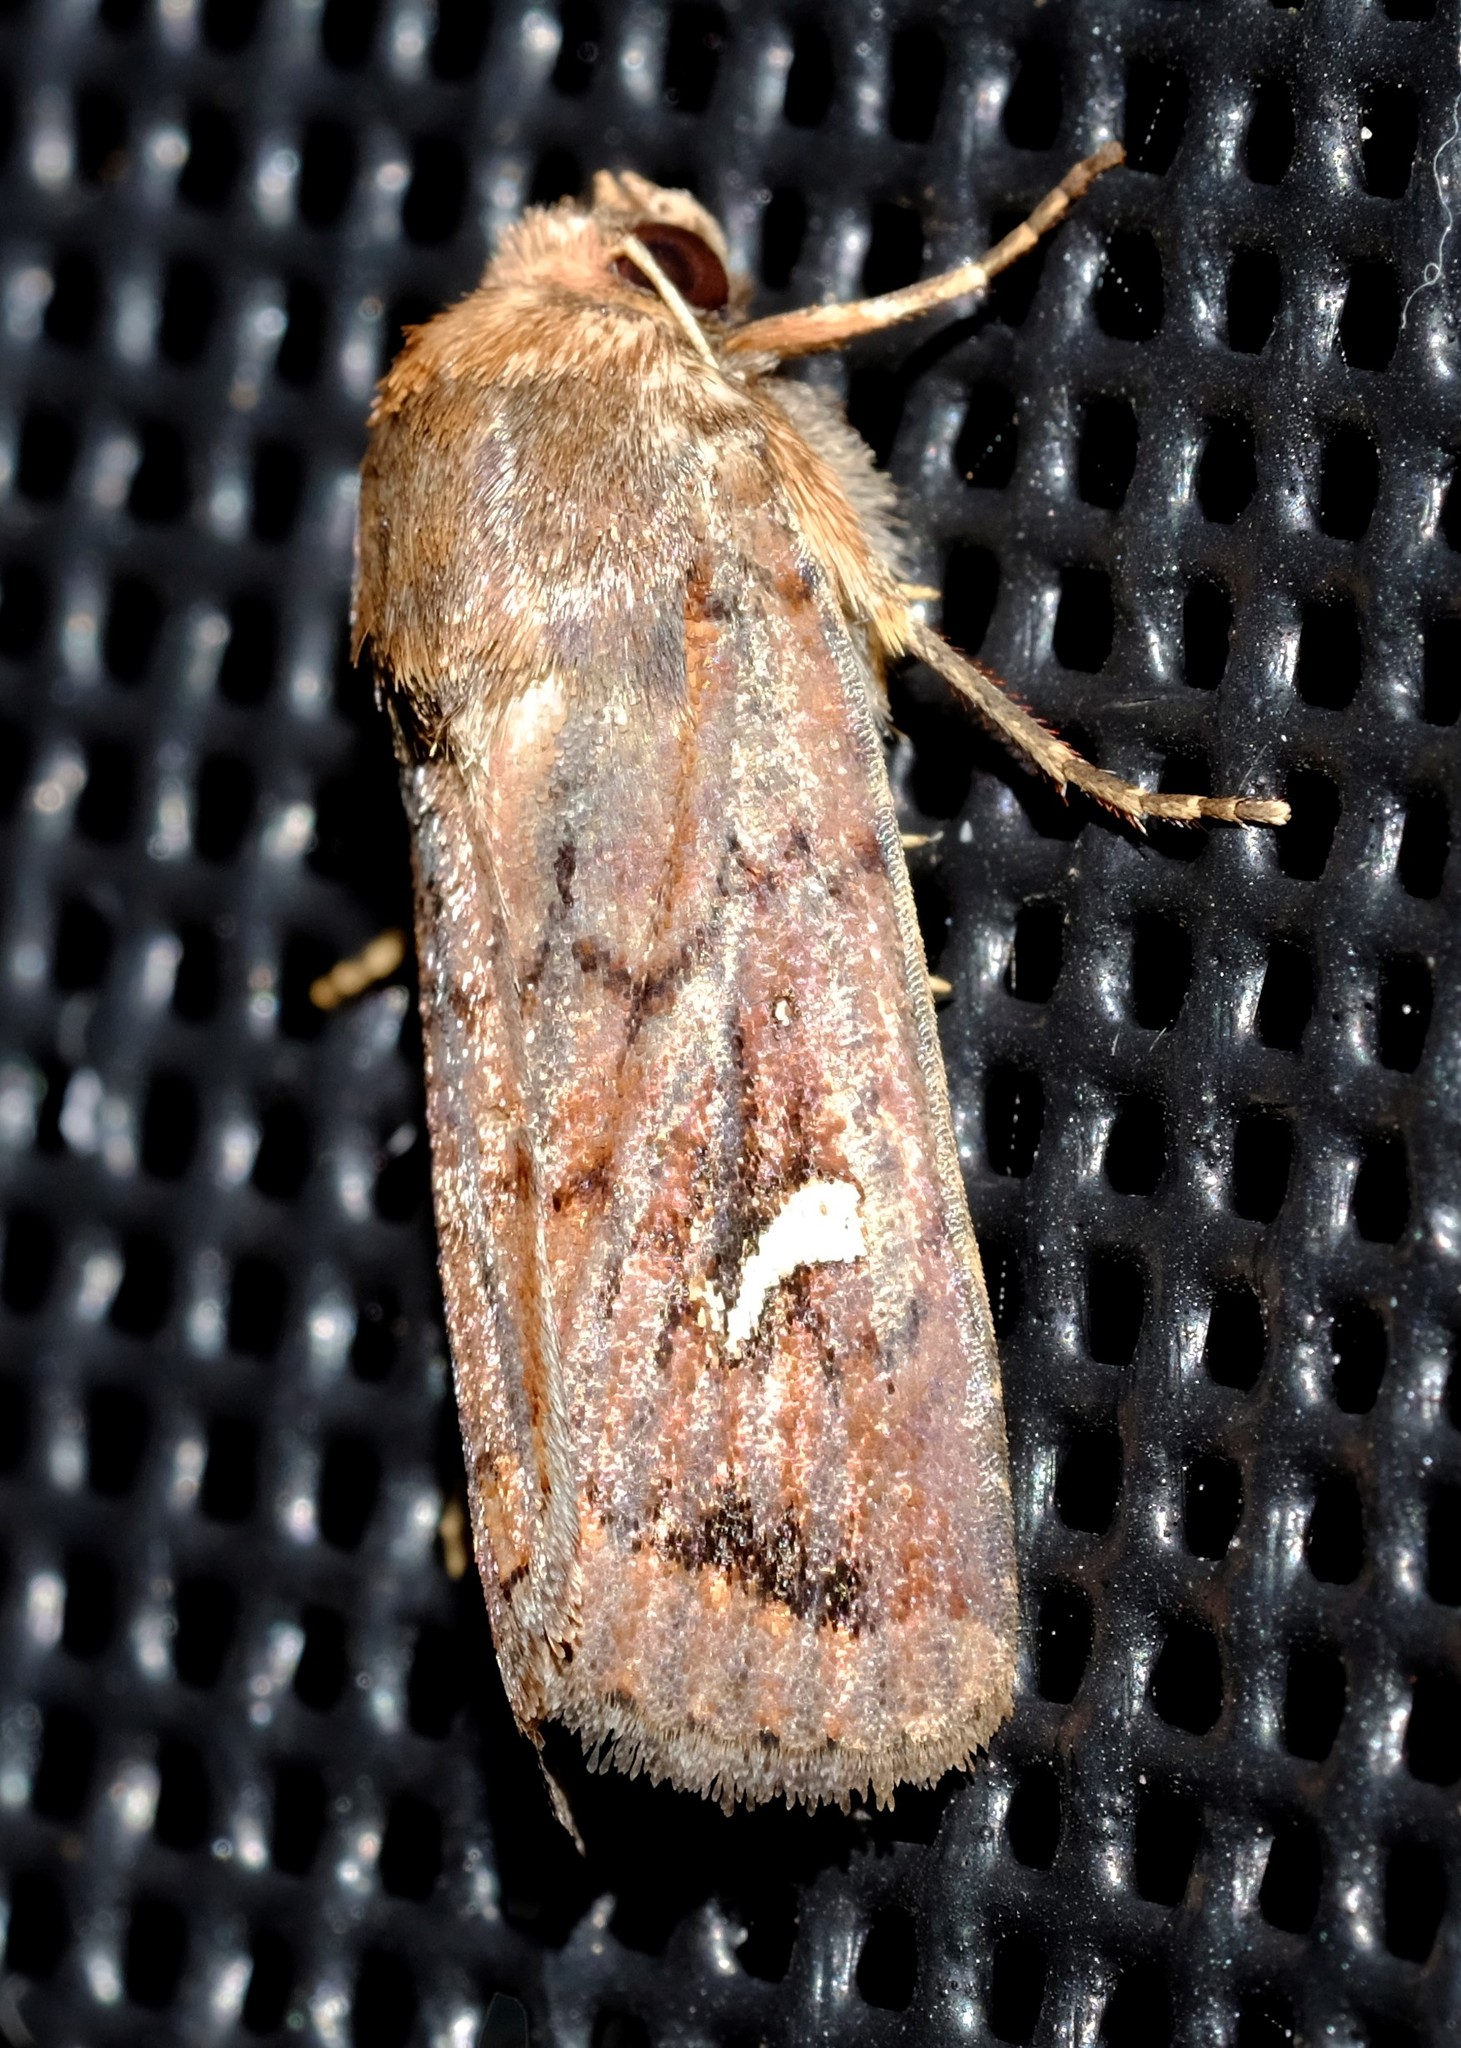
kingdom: Animalia
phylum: Arthropoda
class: Insecta
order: Lepidoptera
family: Noctuidae
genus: Proteuxoa
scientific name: Proteuxoa bistrigula
